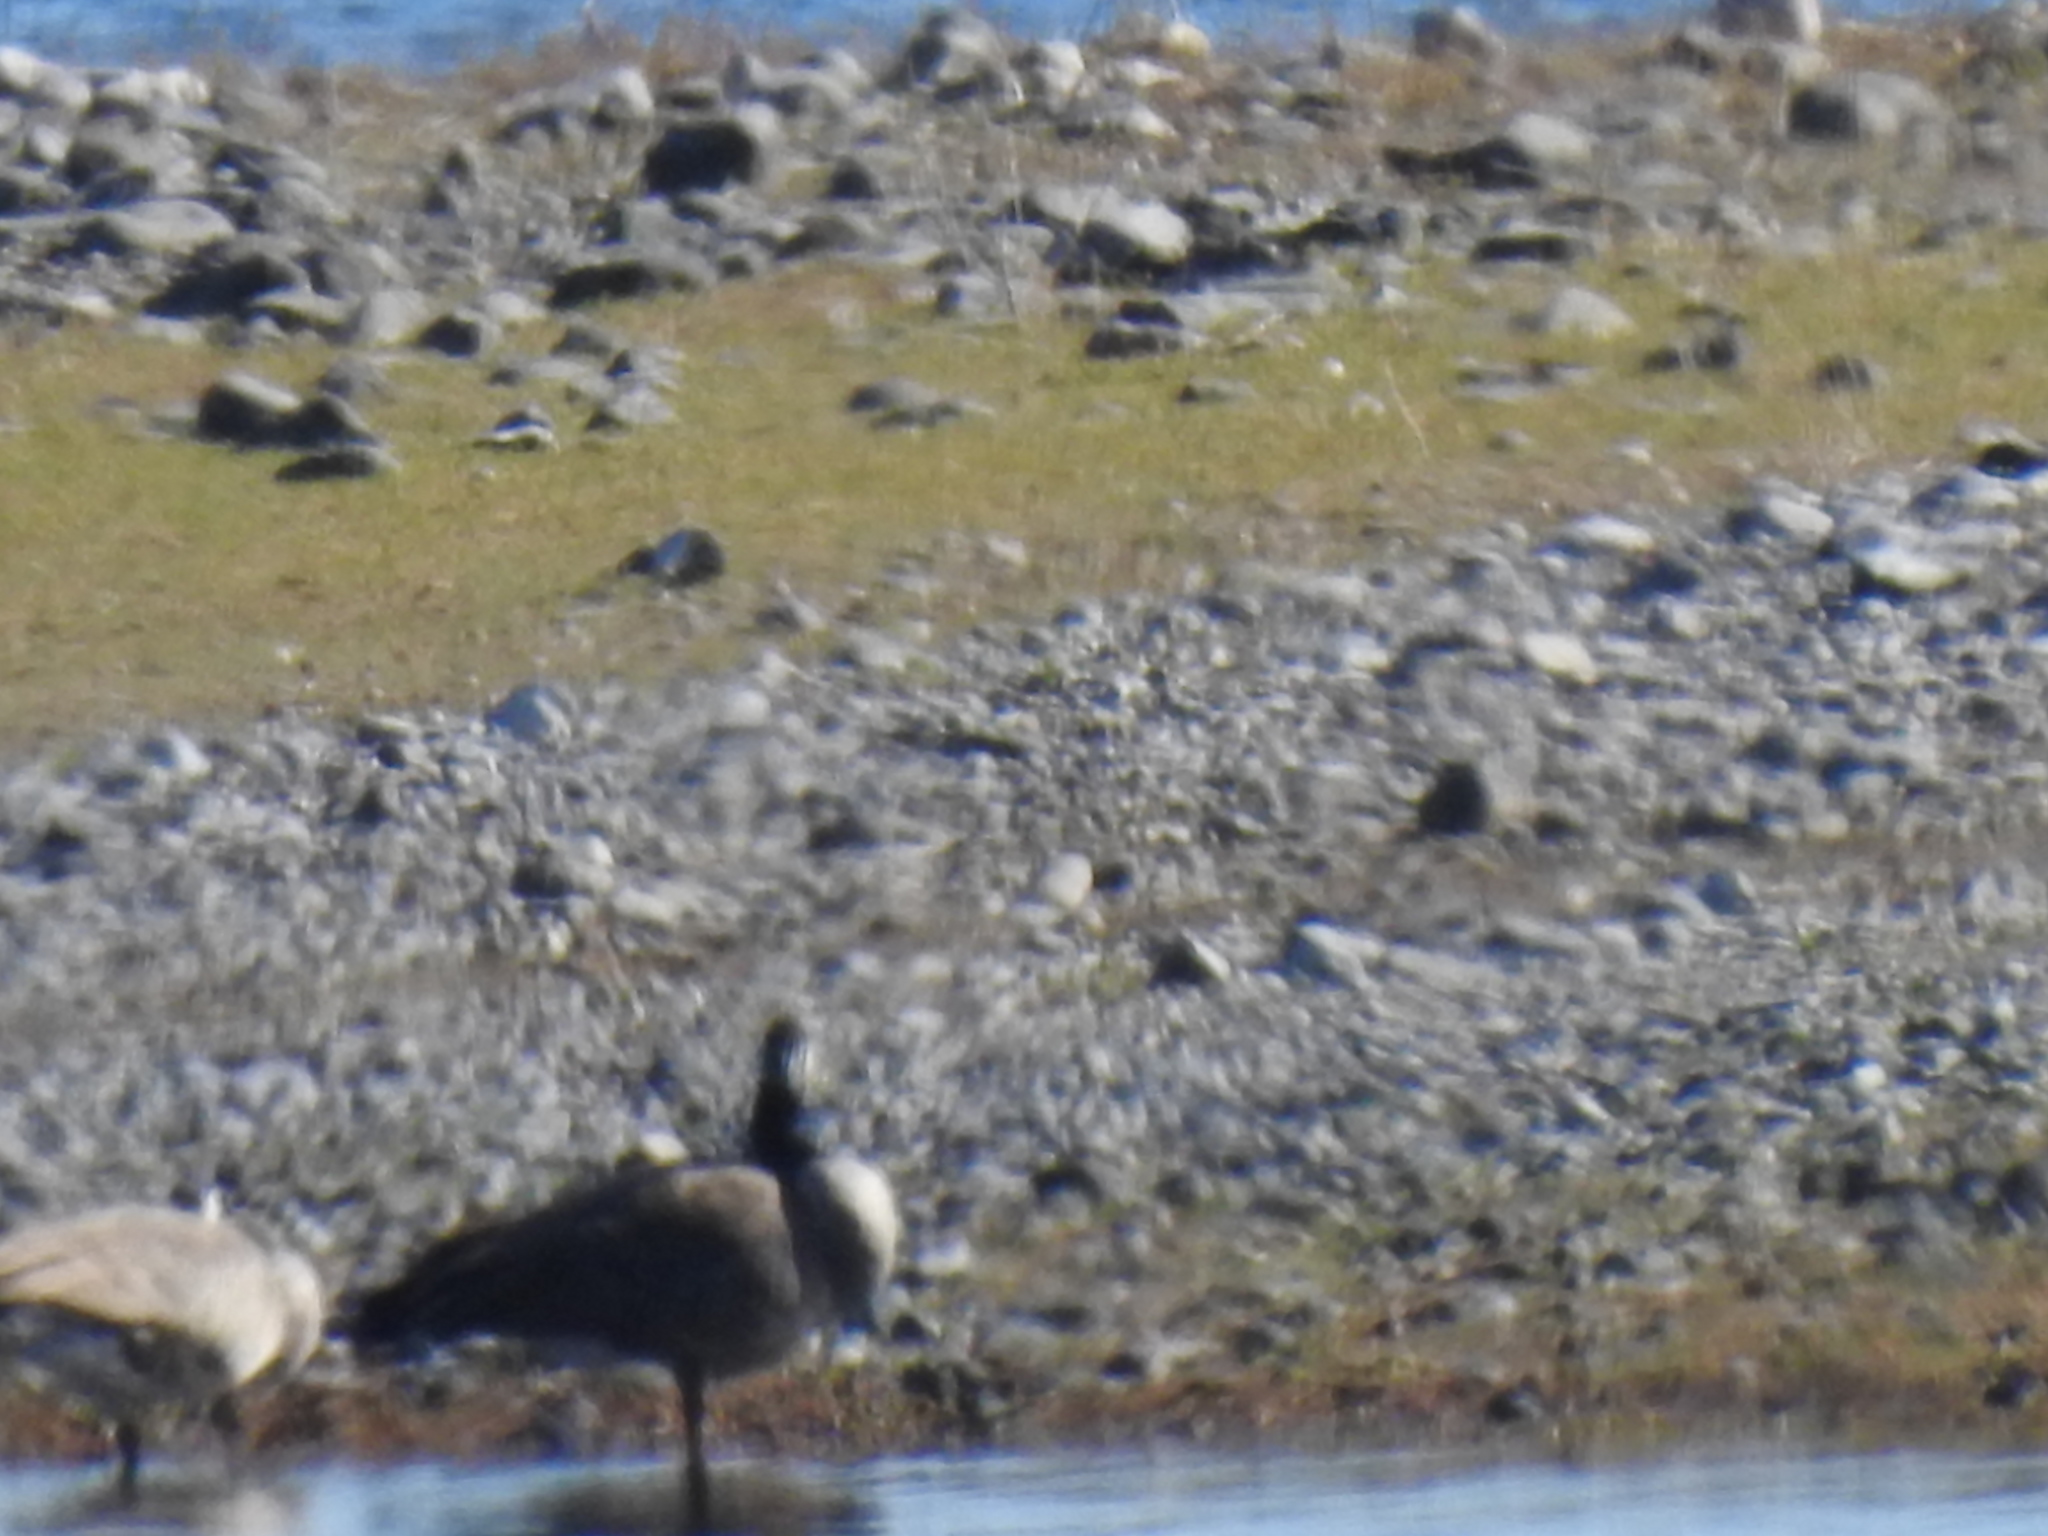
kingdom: Animalia
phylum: Chordata
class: Aves
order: Anseriformes
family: Anatidae
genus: Branta
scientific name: Branta canadensis
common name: Canada goose
